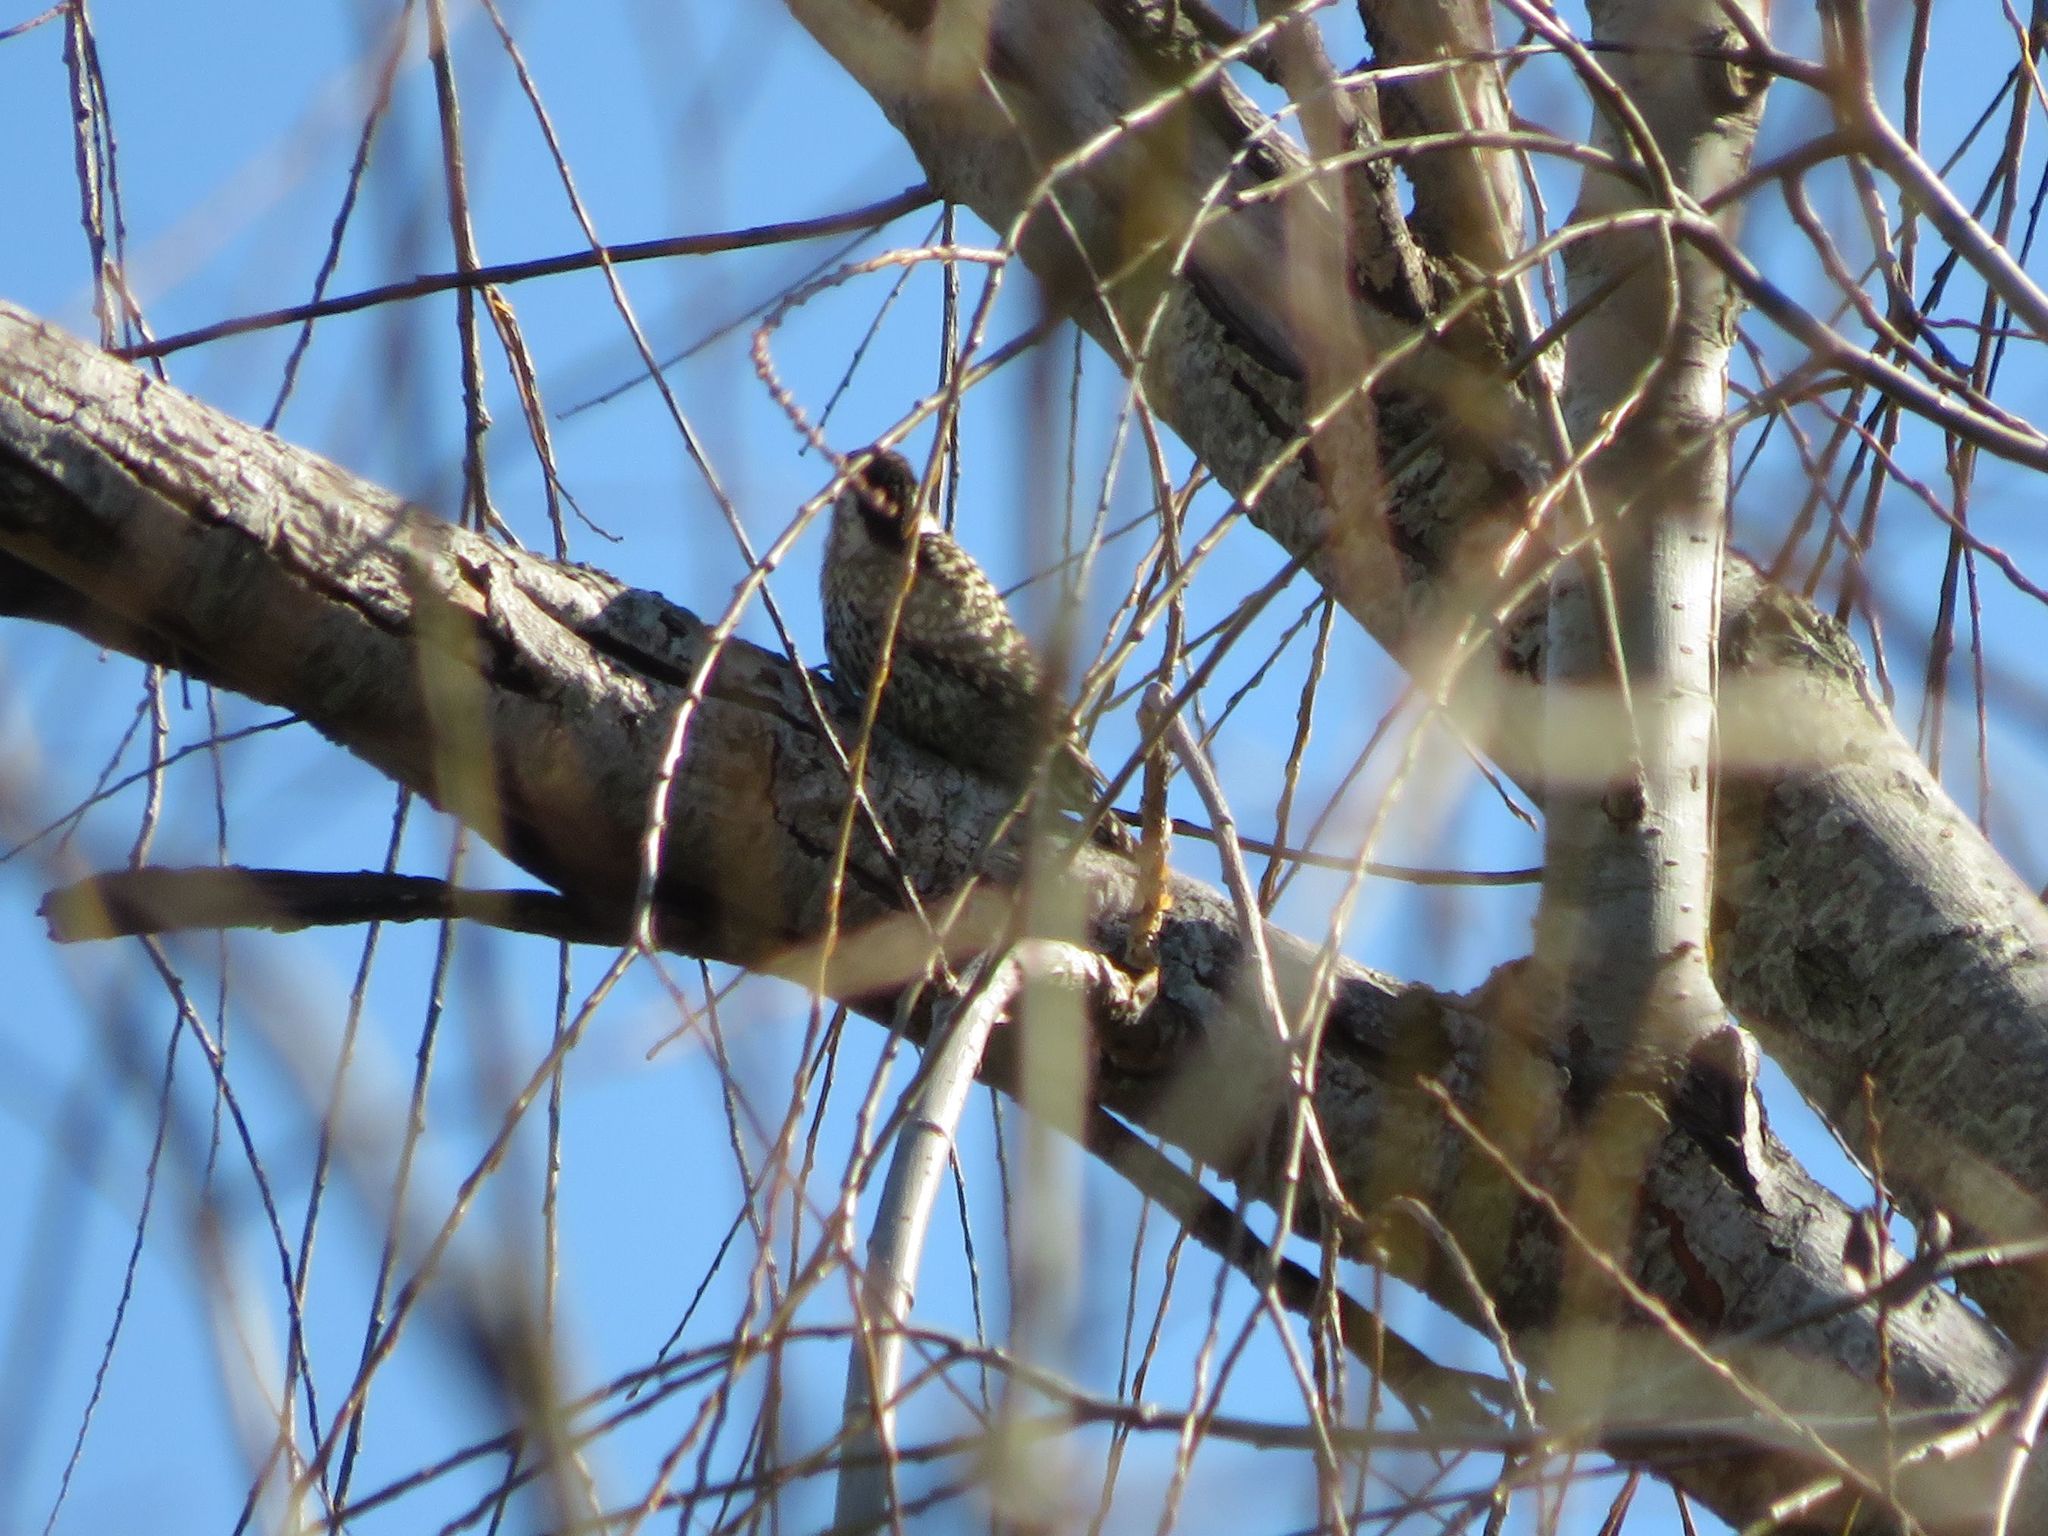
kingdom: Animalia
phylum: Chordata
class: Aves
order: Piciformes
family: Picidae
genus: Veniliornis
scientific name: Veniliornis mixtus
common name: Checkered woodpecker
